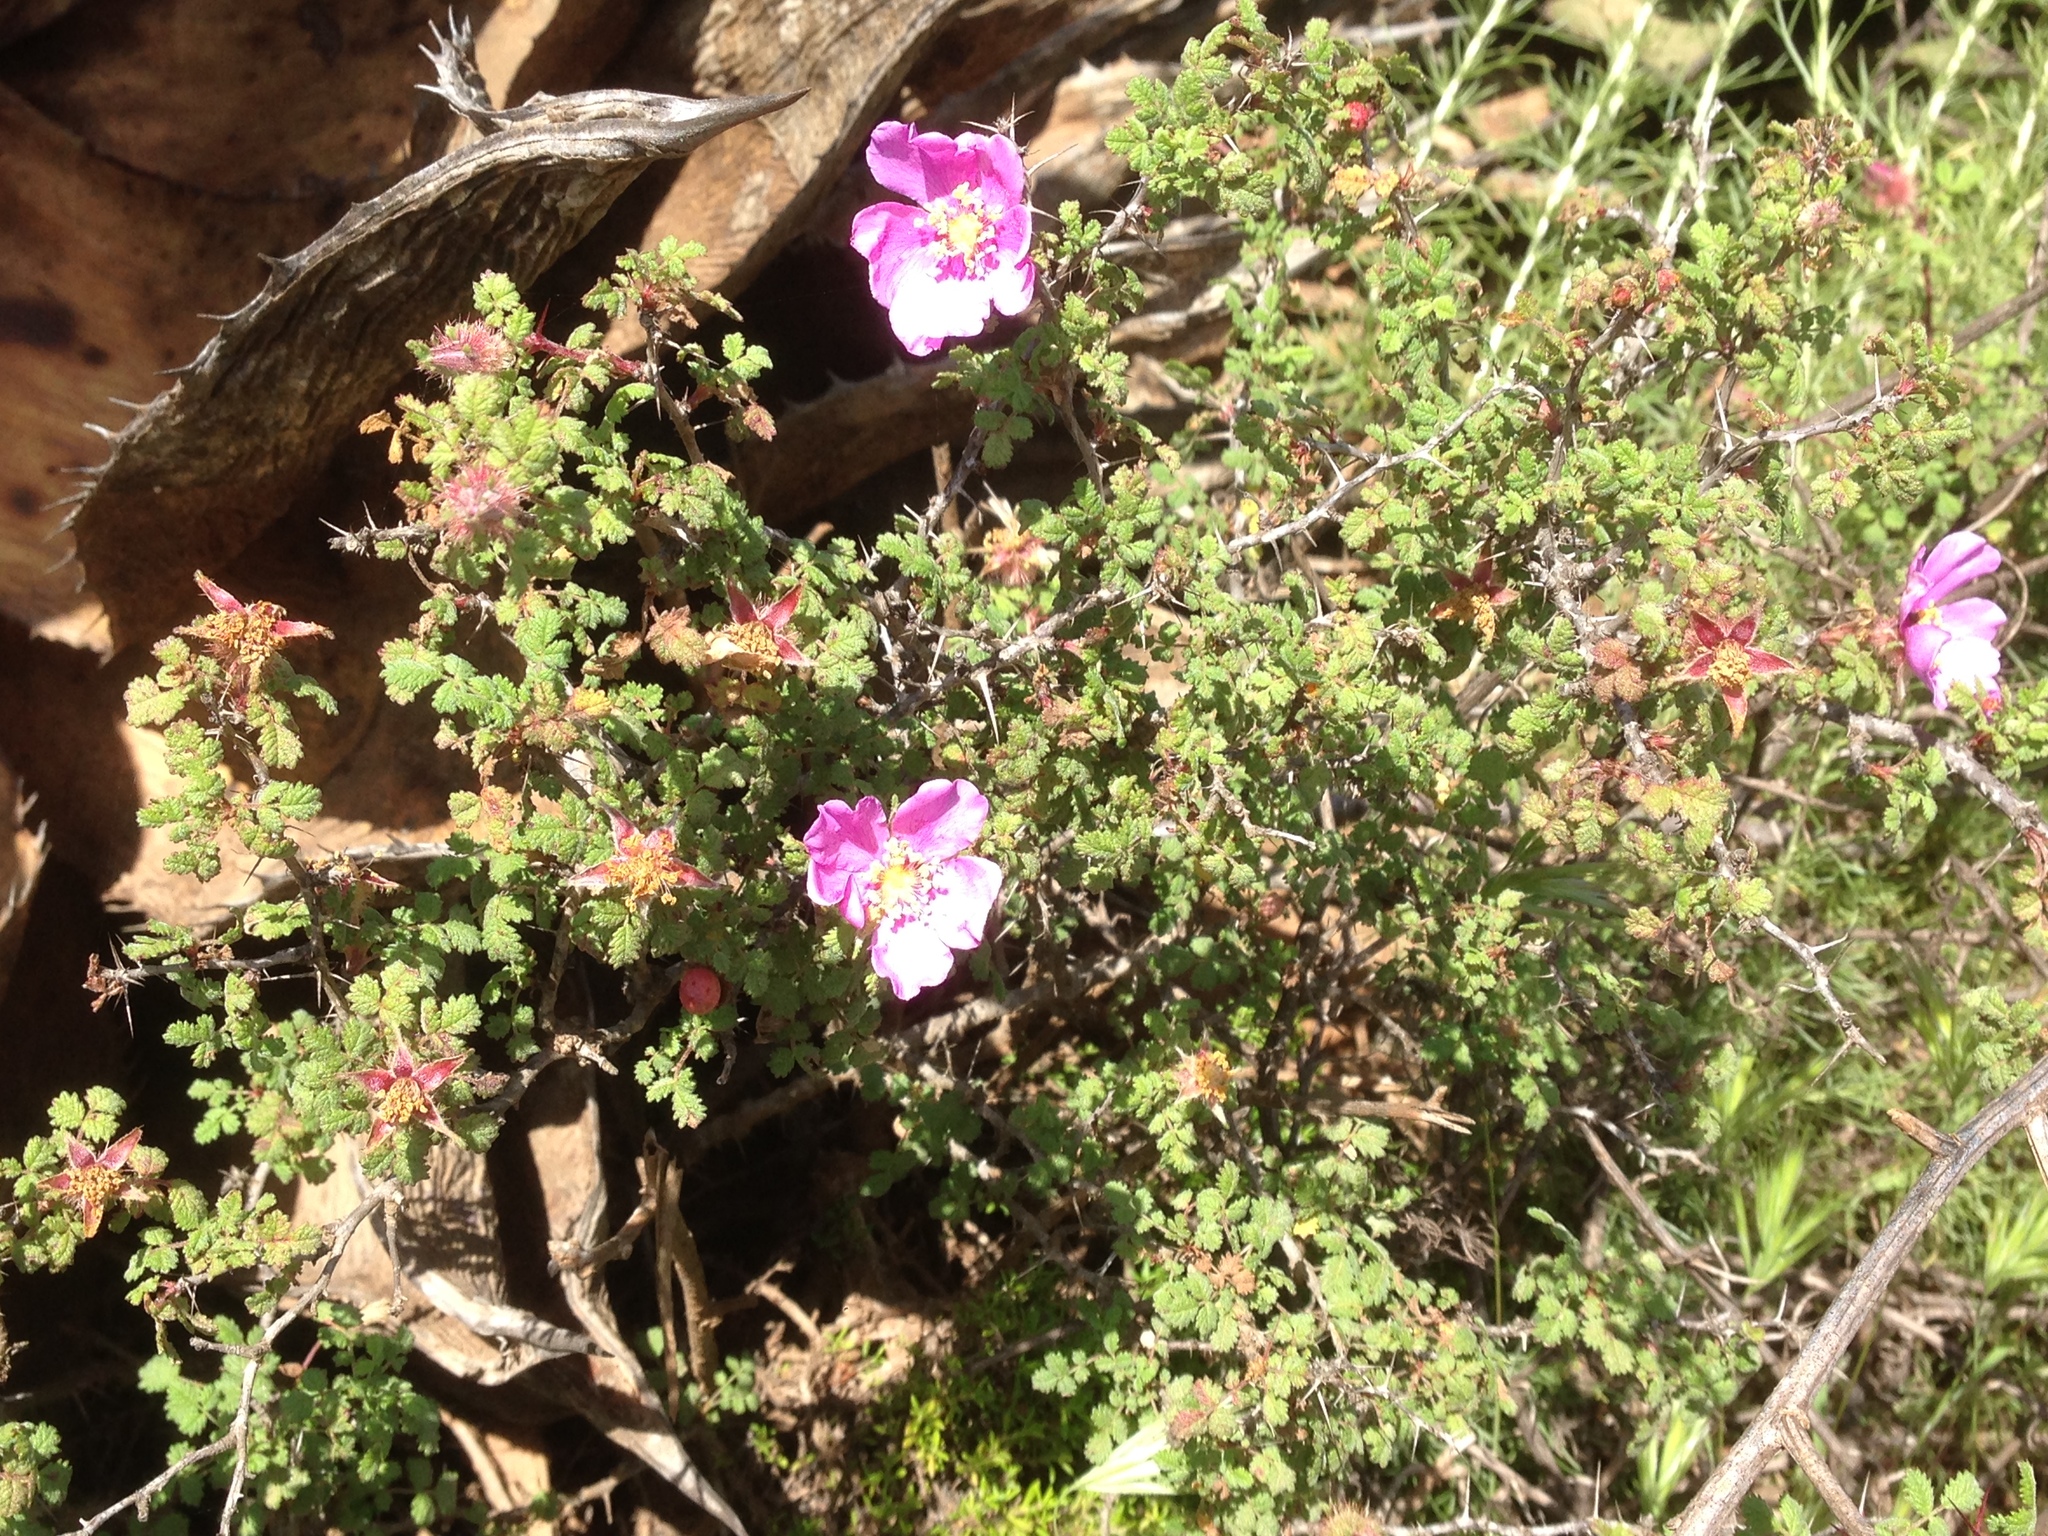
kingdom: Plantae
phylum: Tracheophyta
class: Magnoliopsida
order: Rosales
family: Rosaceae
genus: Rosa
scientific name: Rosa minutifolia
